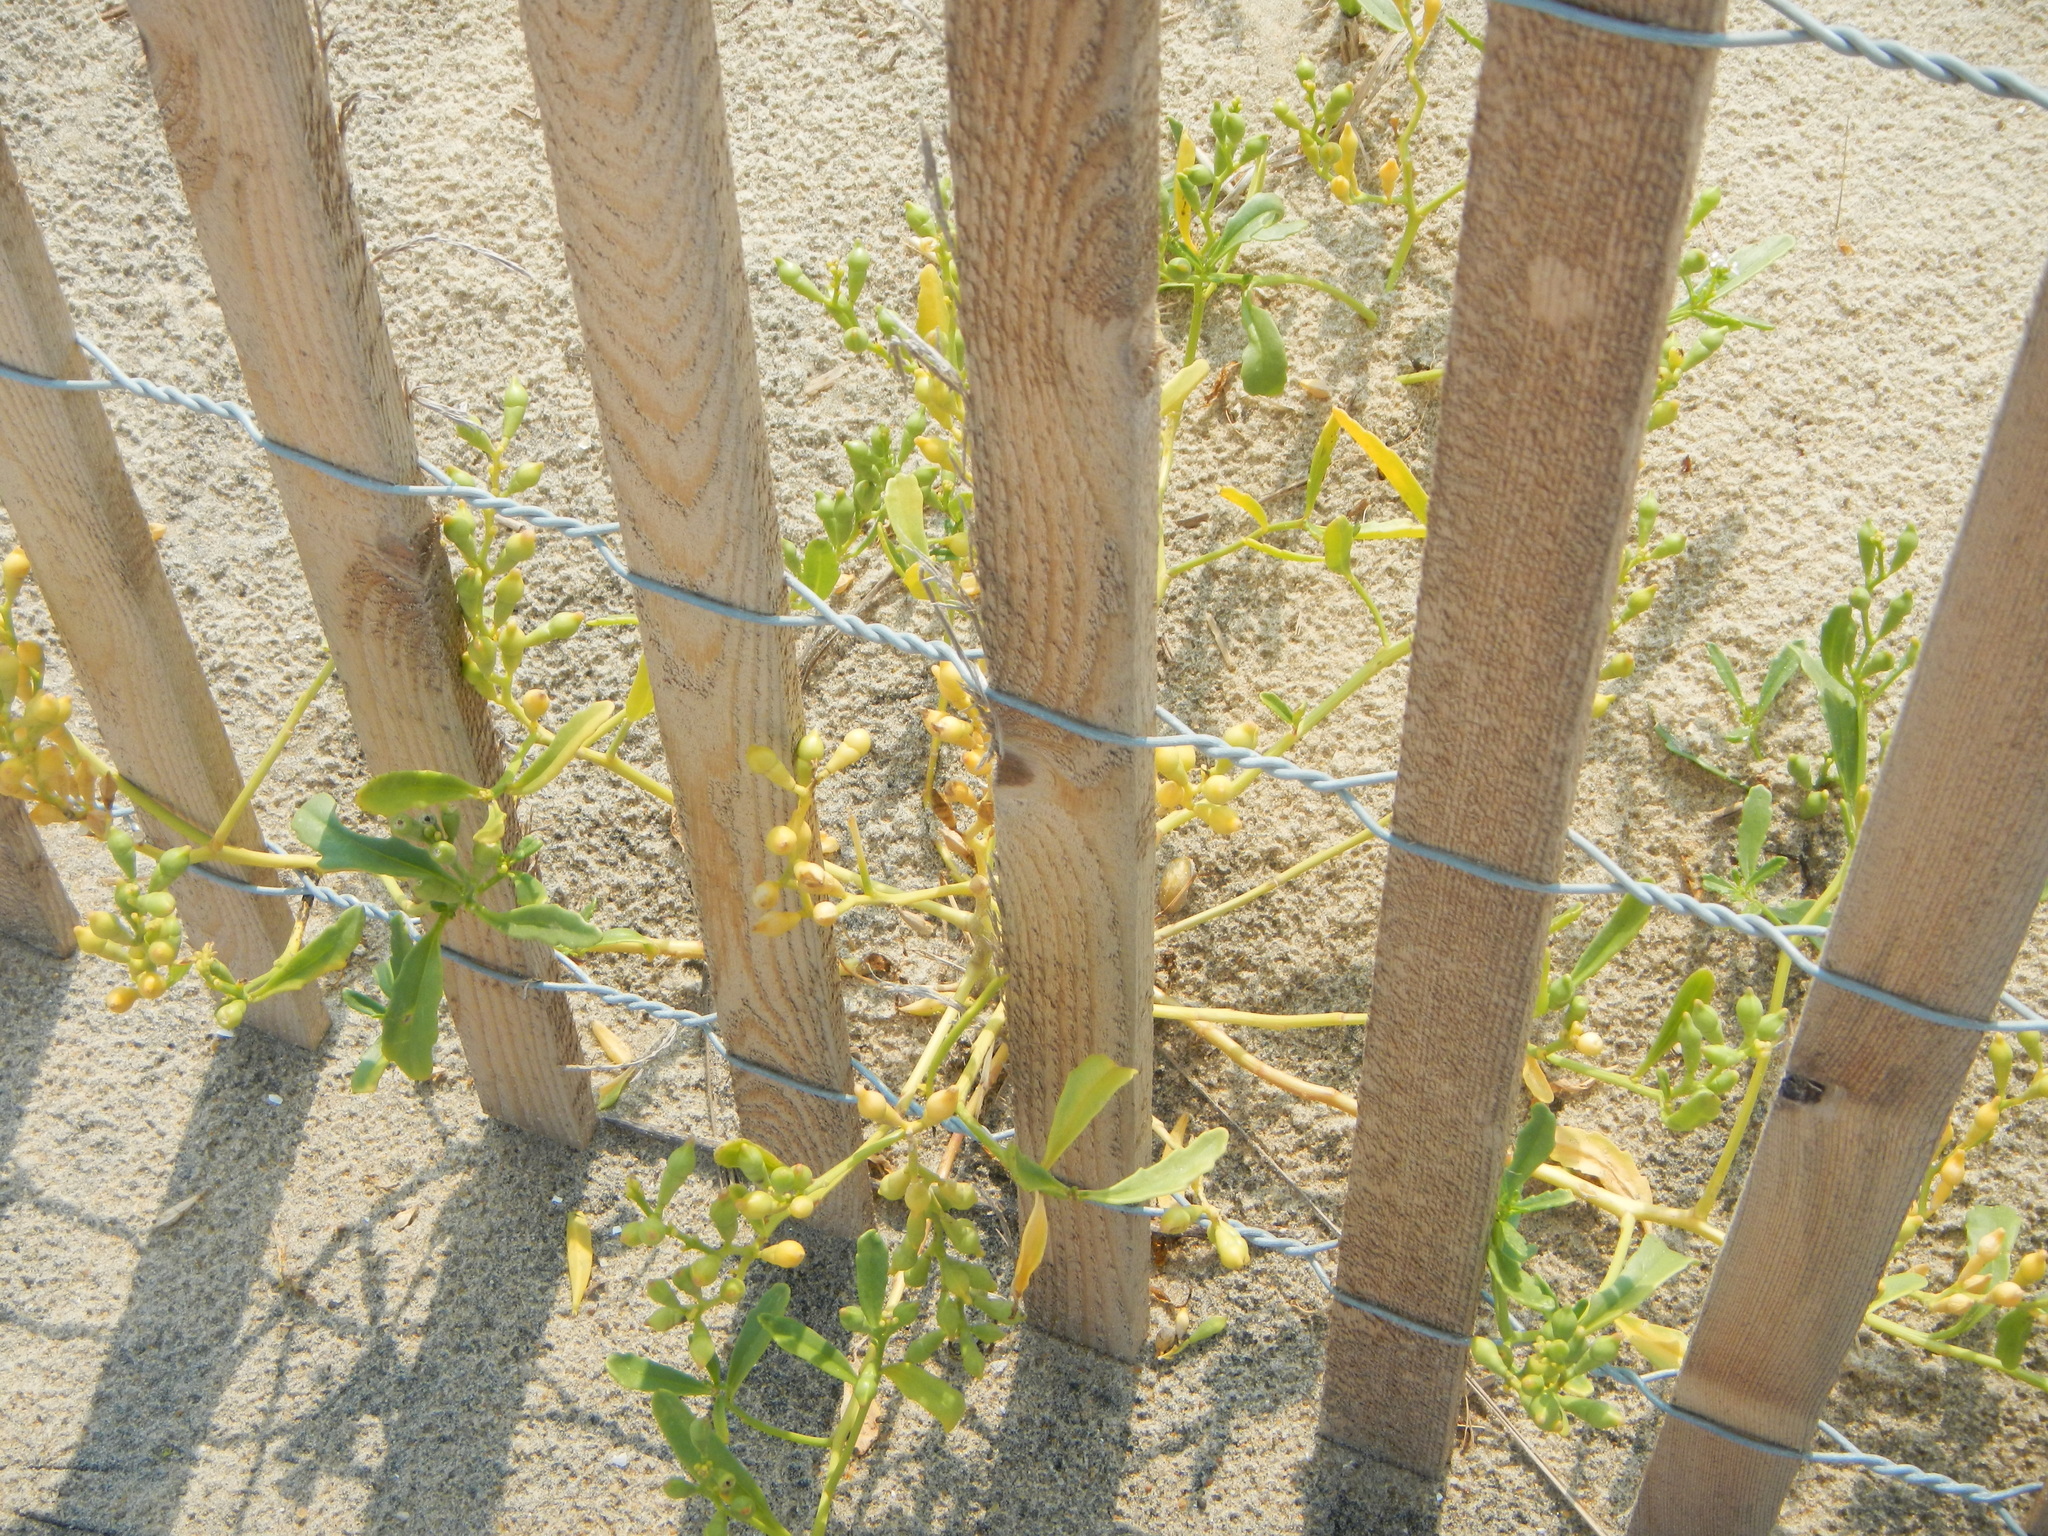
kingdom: Plantae
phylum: Tracheophyta
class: Magnoliopsida
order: Brassicales
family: Brassicaceae
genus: Cakile
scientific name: Cakile edentula
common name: American sea rocket
